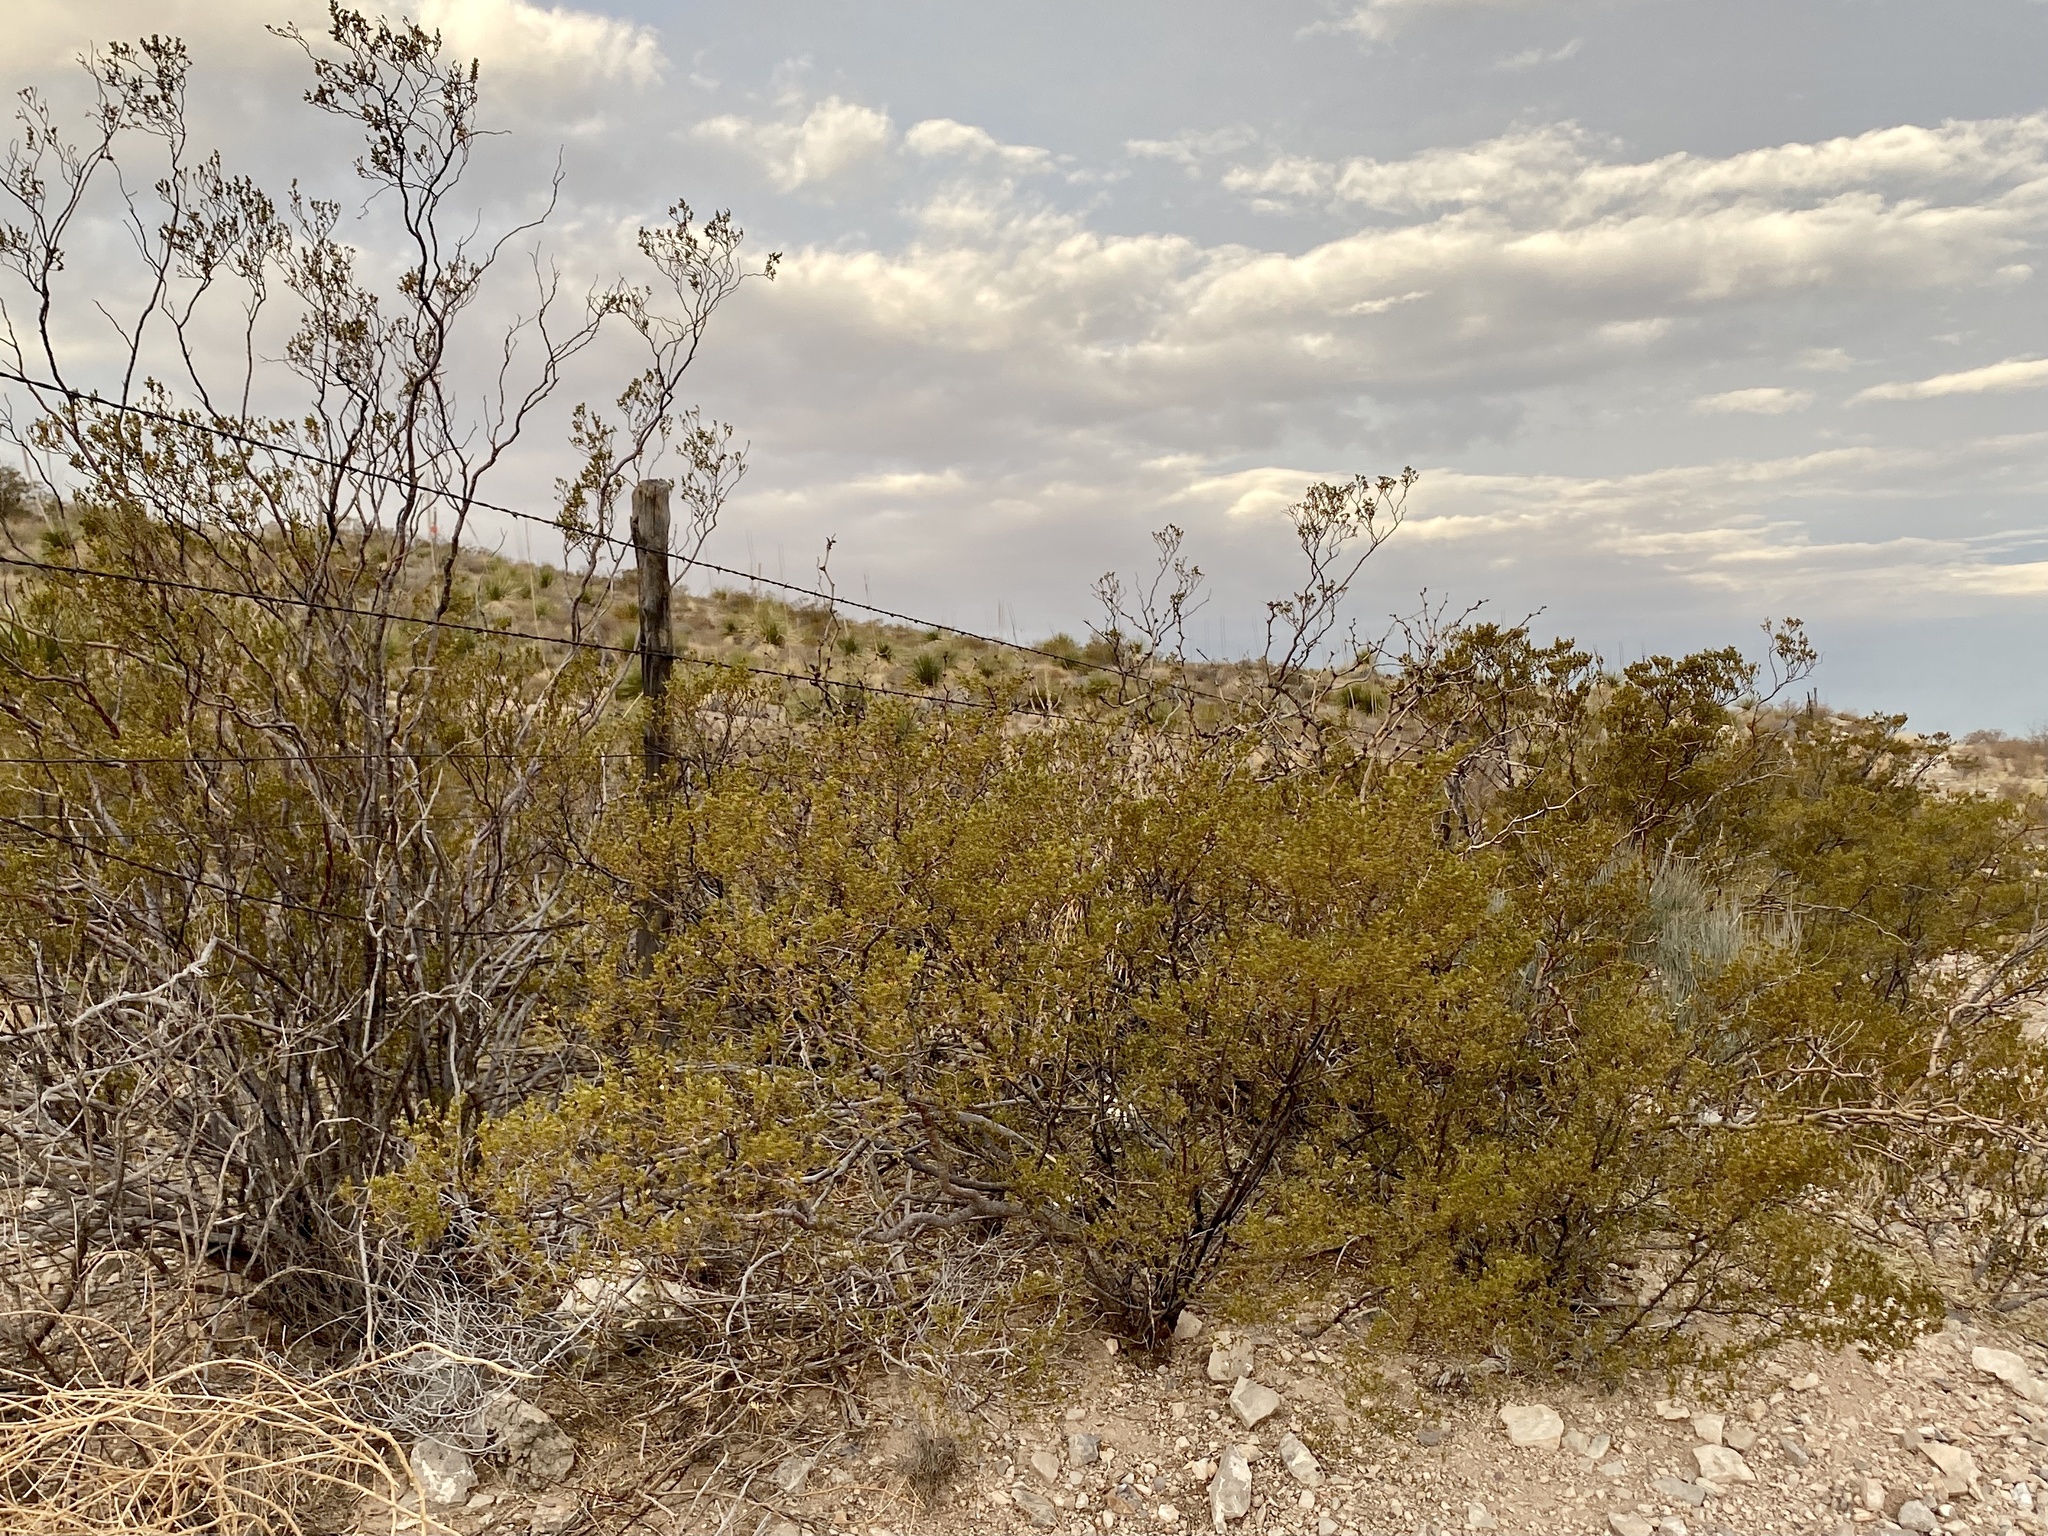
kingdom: Plantae
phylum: Tracheophyta
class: Magnoliopsida
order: Zygophyllales
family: Zygophyllaceae
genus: Larrea
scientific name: Larrea tridentata
